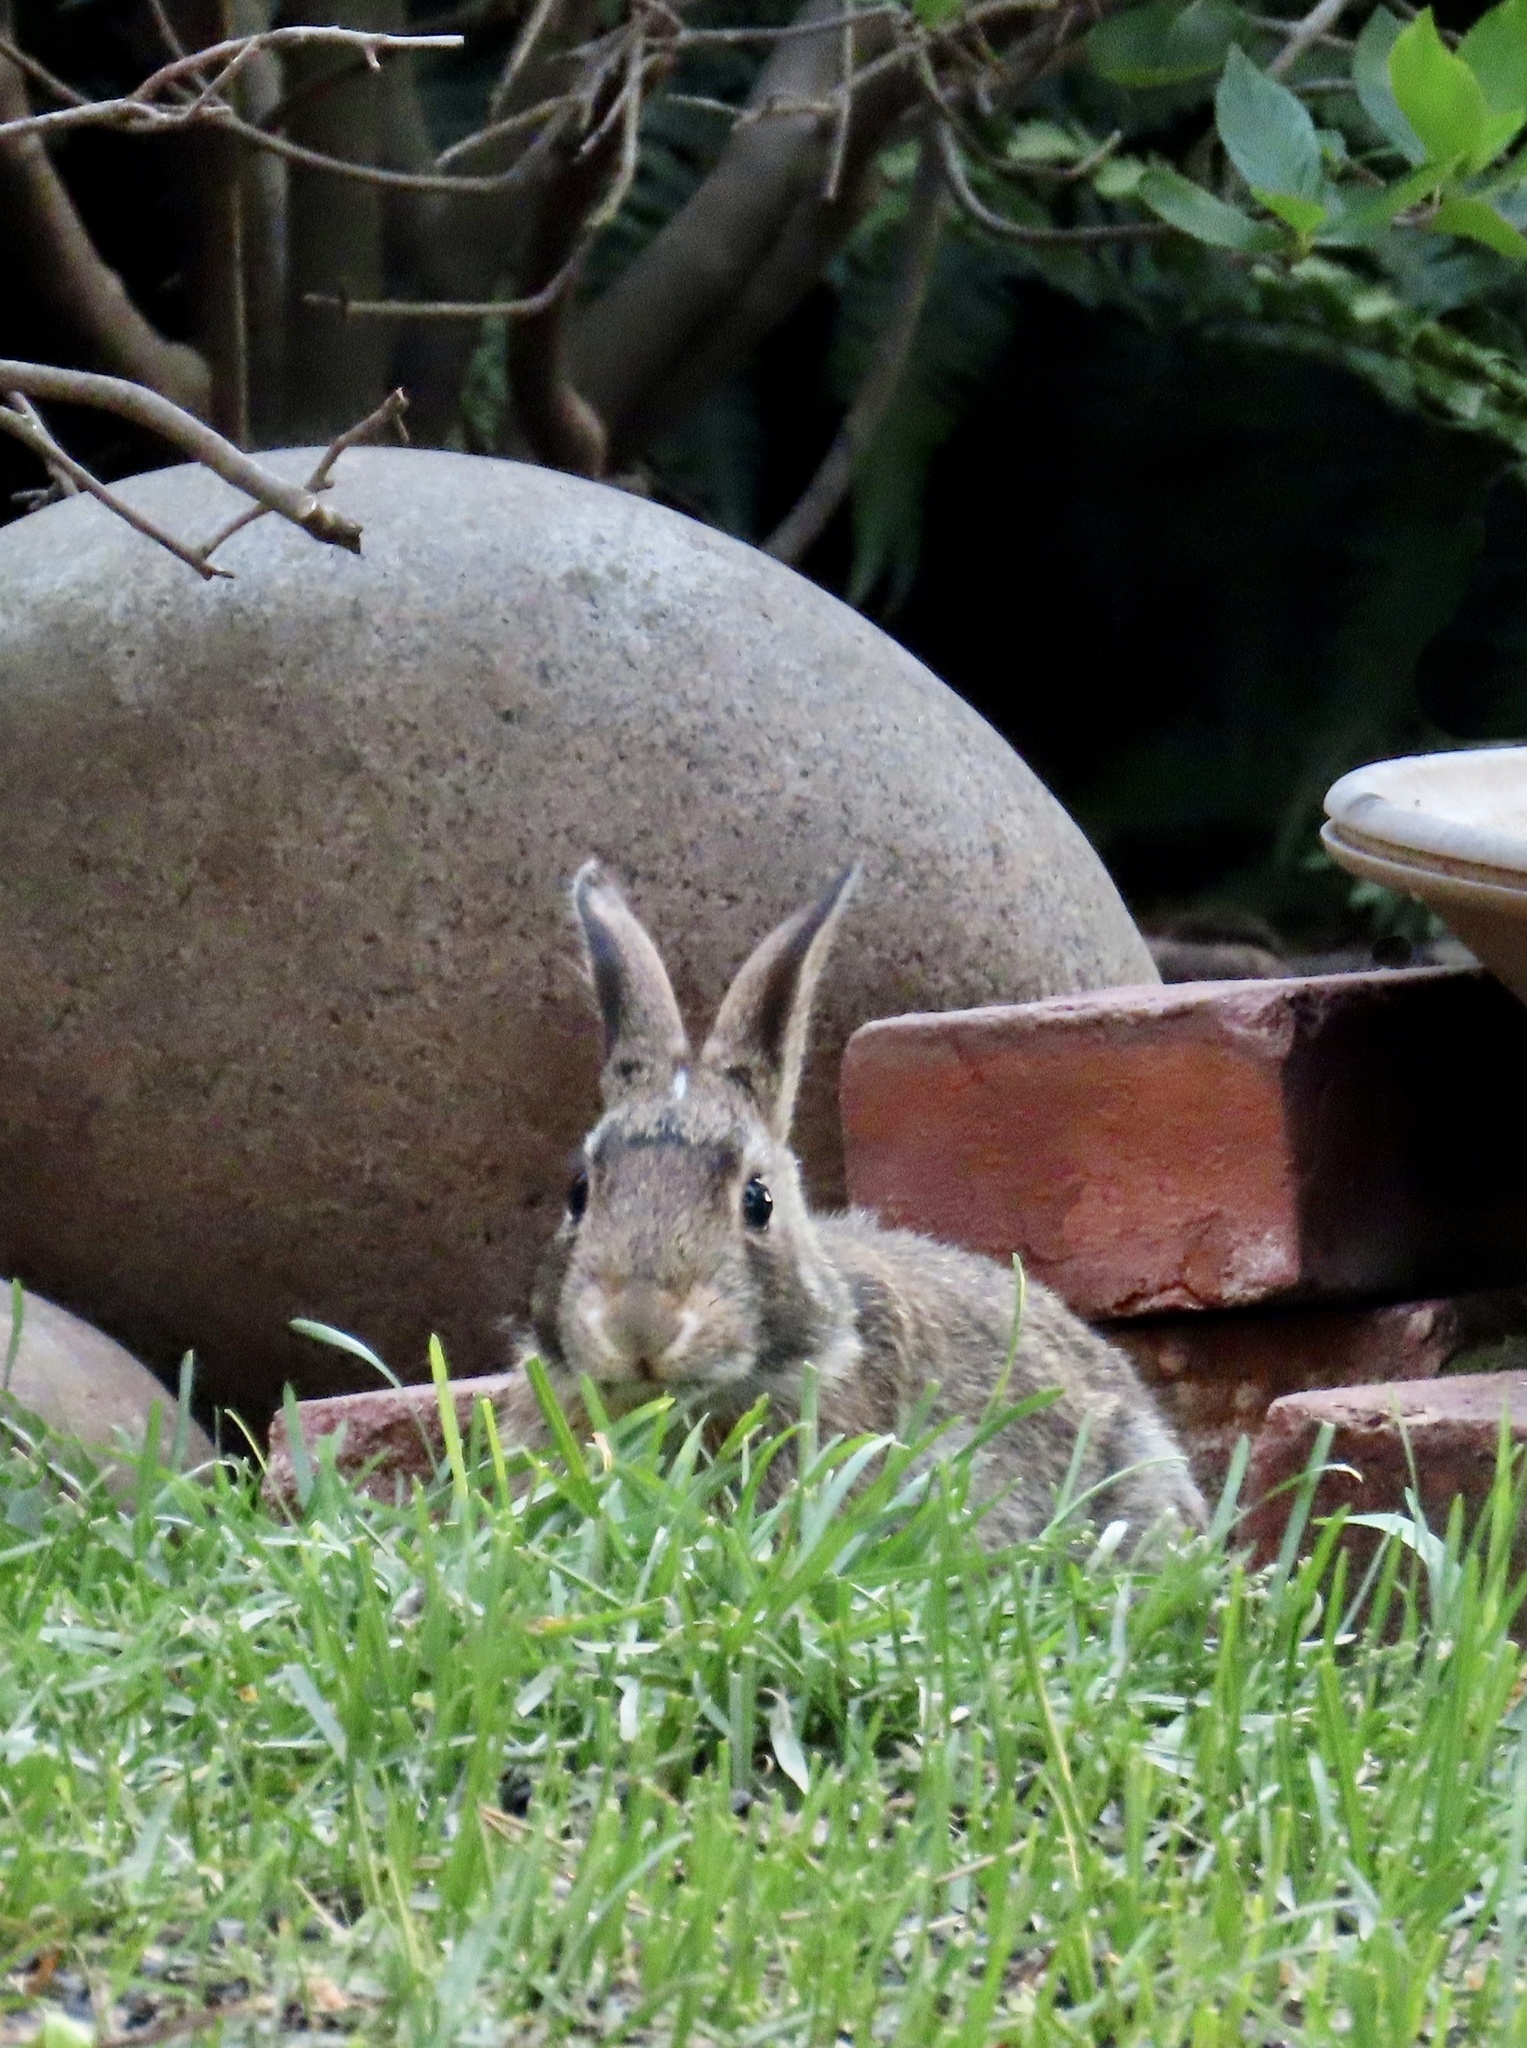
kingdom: Animalia
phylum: Chordata
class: Mammalia
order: Lagomorpha
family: Leporidae
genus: Sylvilagus
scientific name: Sylvilagus floridanus
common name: Eastern cottontail
